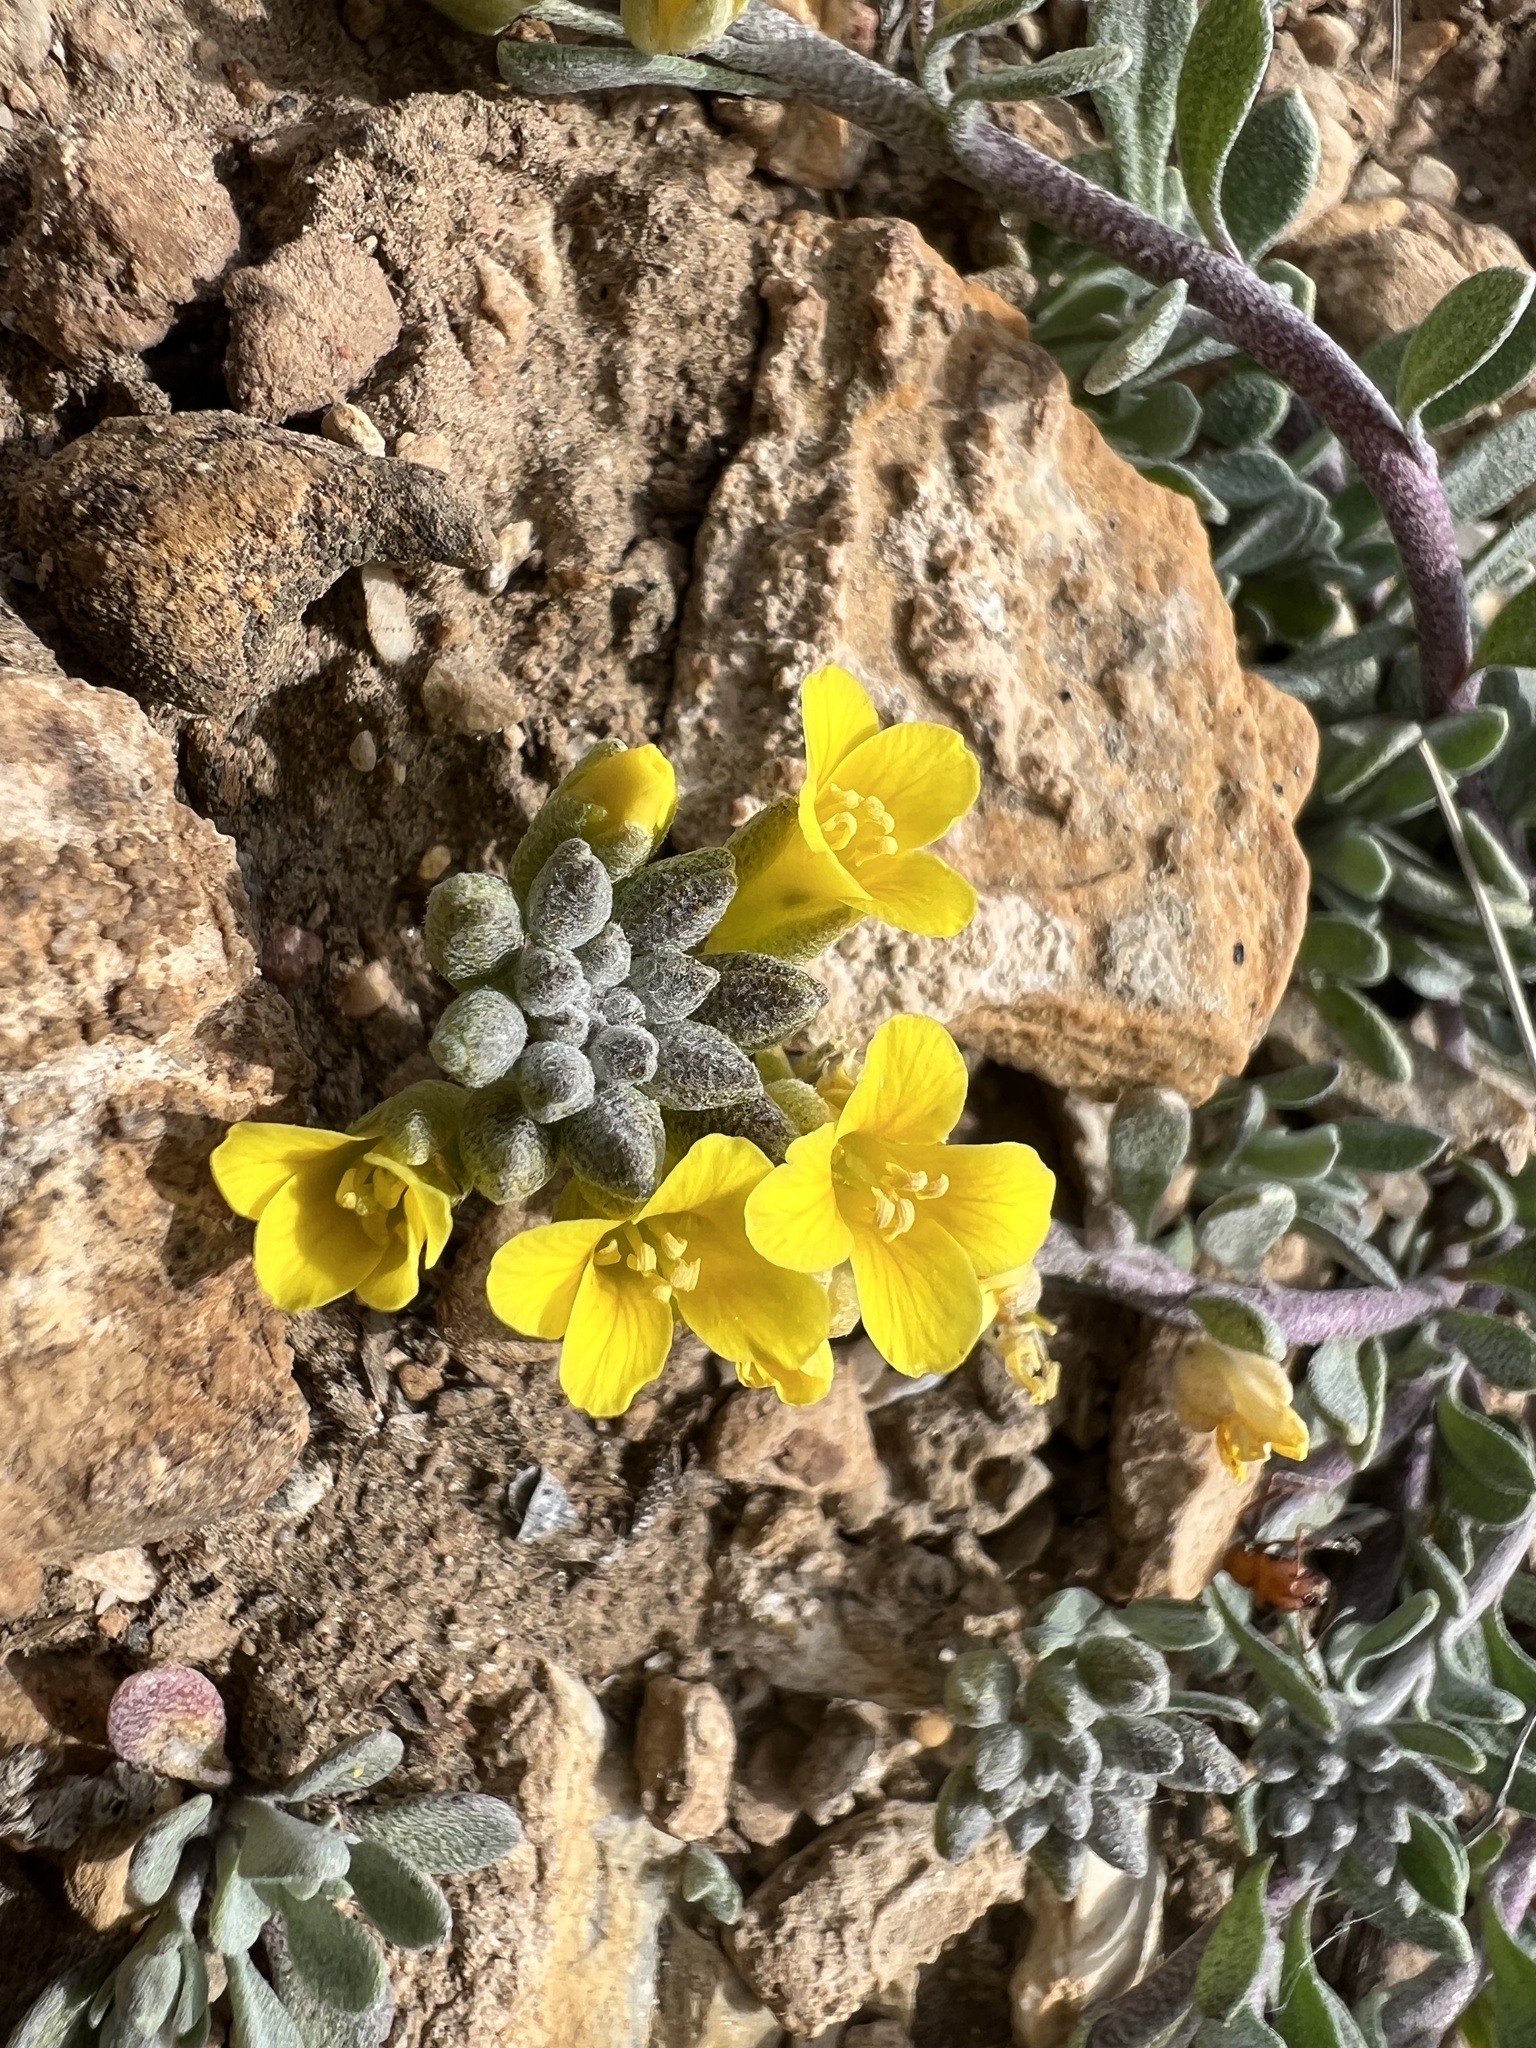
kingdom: Plantae
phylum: Tracheophyta
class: Magnoliopsida
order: Brassicales
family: Brassicaceae
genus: Physaria
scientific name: Physaria kingii
